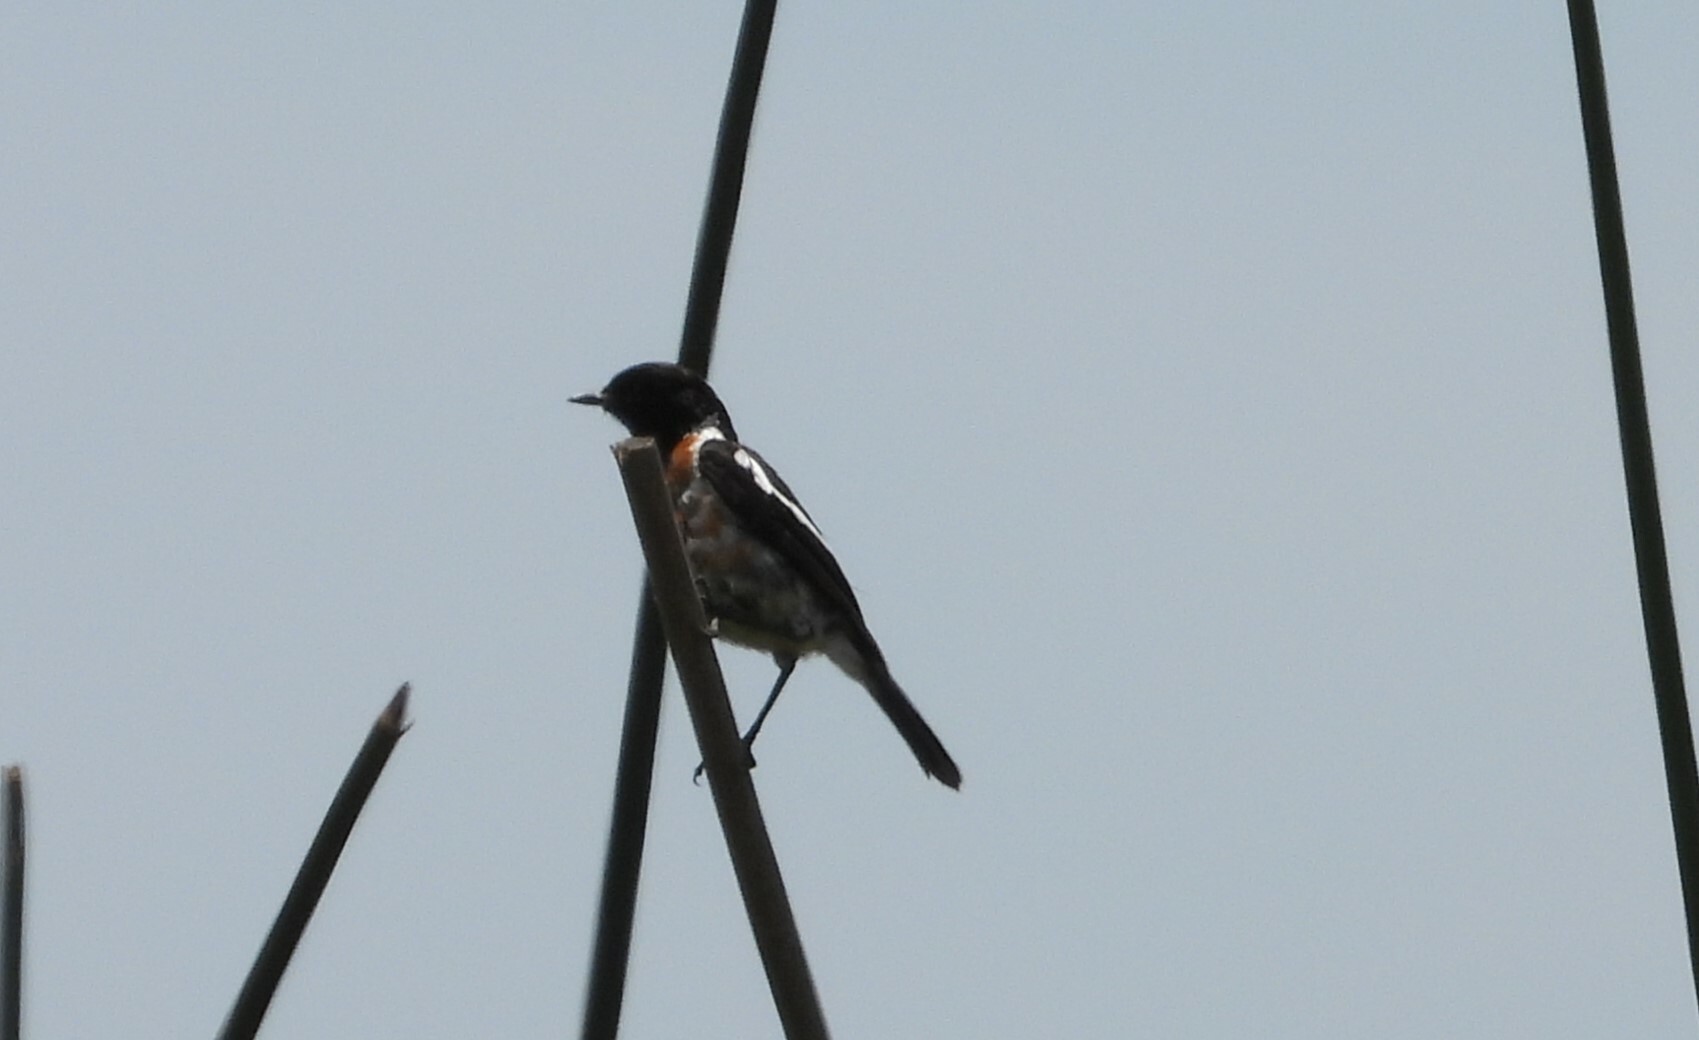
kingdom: Animalia
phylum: Chordata
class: Aves
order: Passeriformes
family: Muscicapidae
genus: Saxicola
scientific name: Saxicola torquatus
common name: African stonechat
